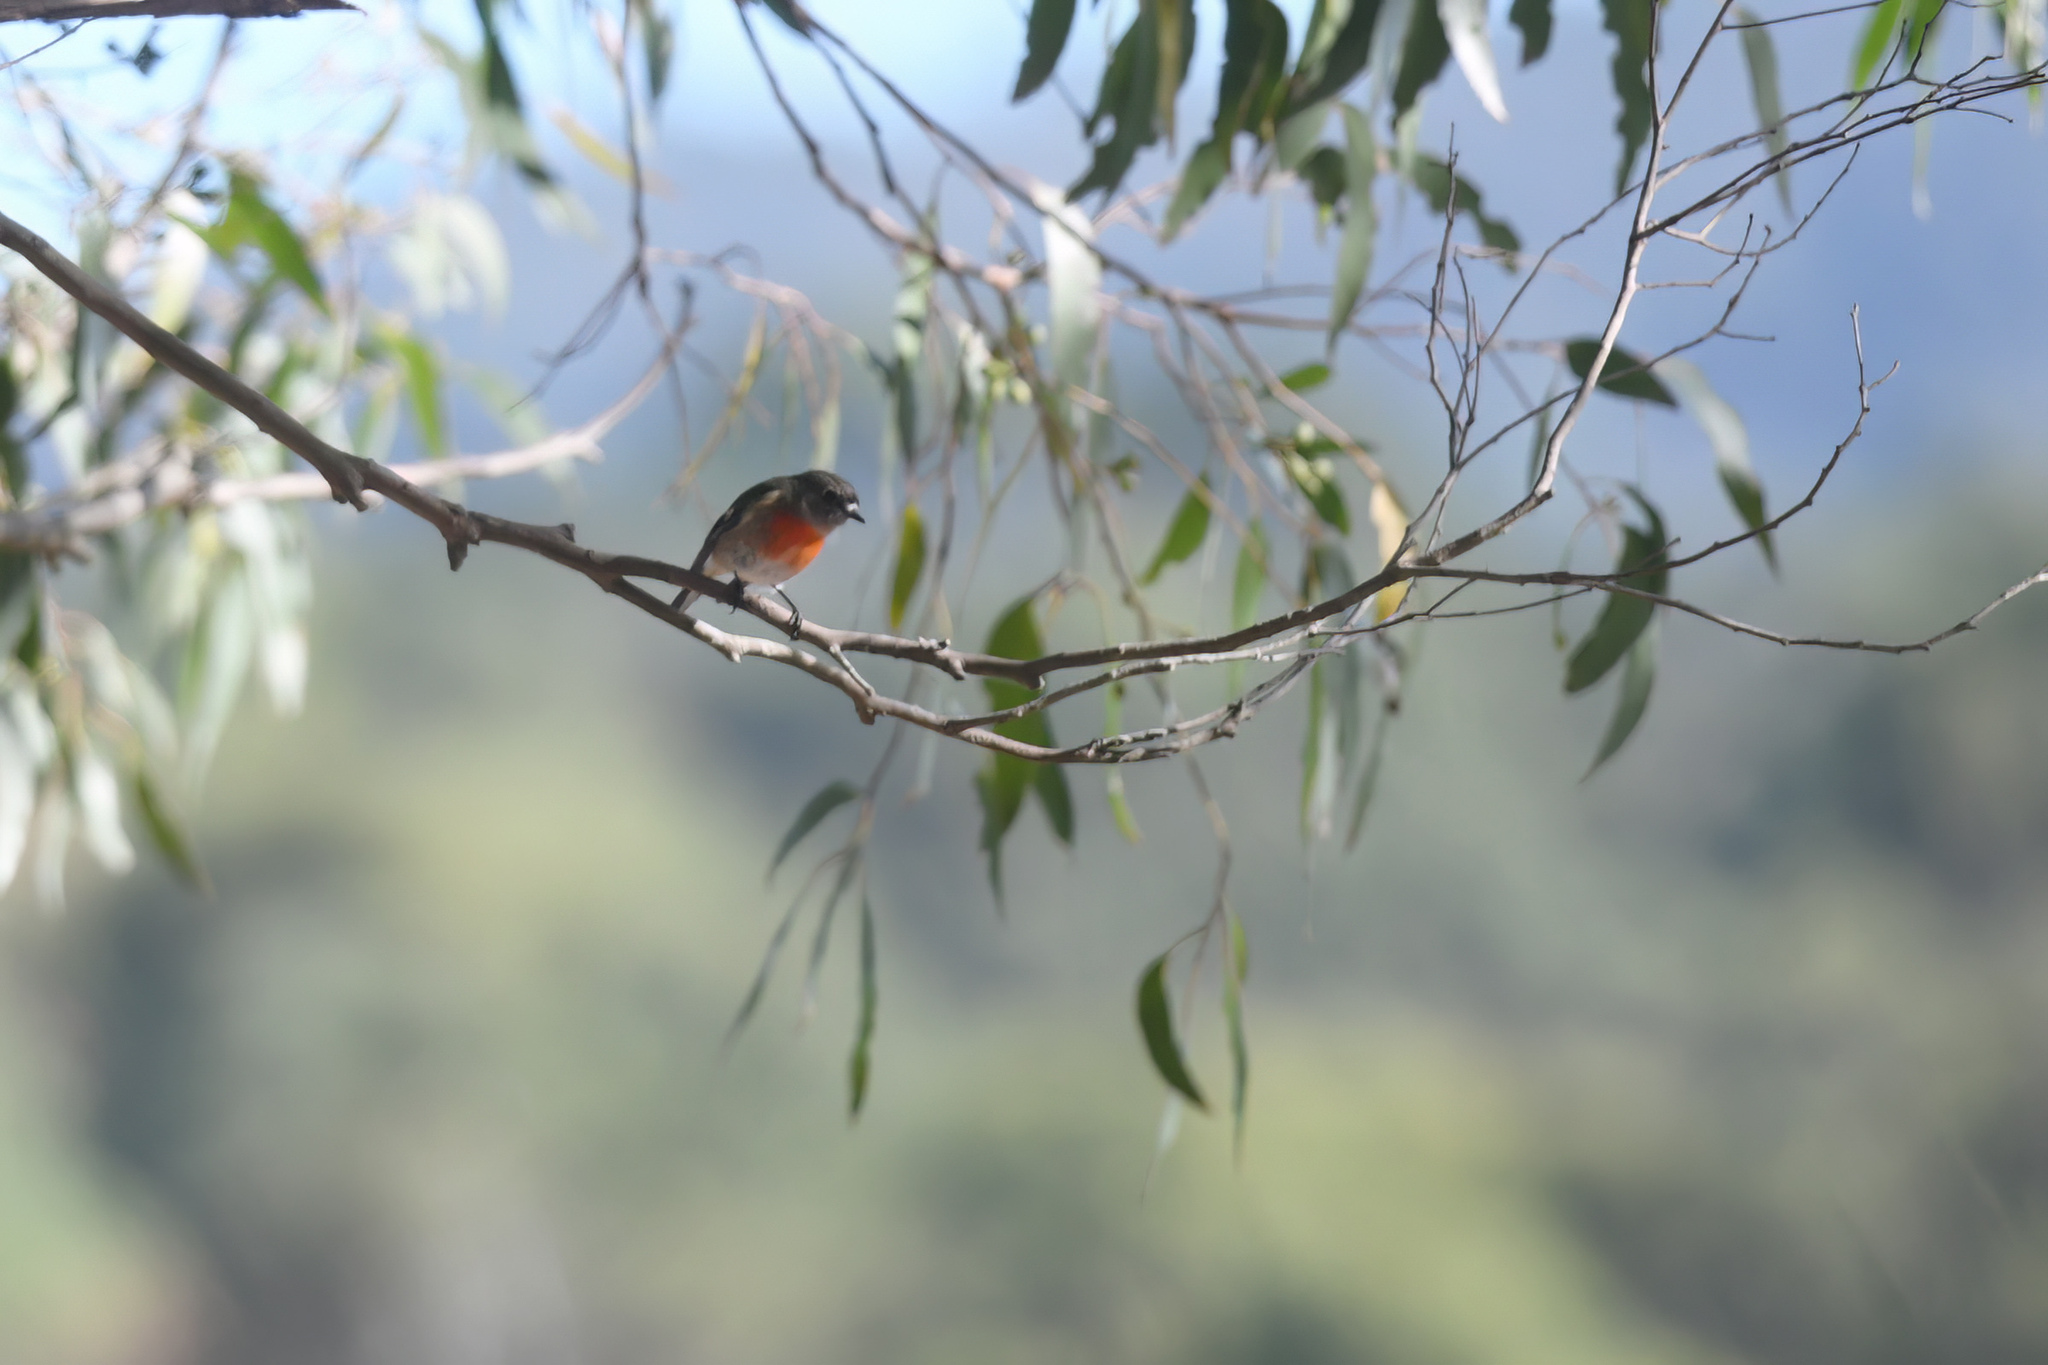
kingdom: Animalia
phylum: Chordata
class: Aves
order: Passeriformes
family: Petroicidae
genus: Petroica
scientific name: Petroica boodang
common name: Scarlet robin
